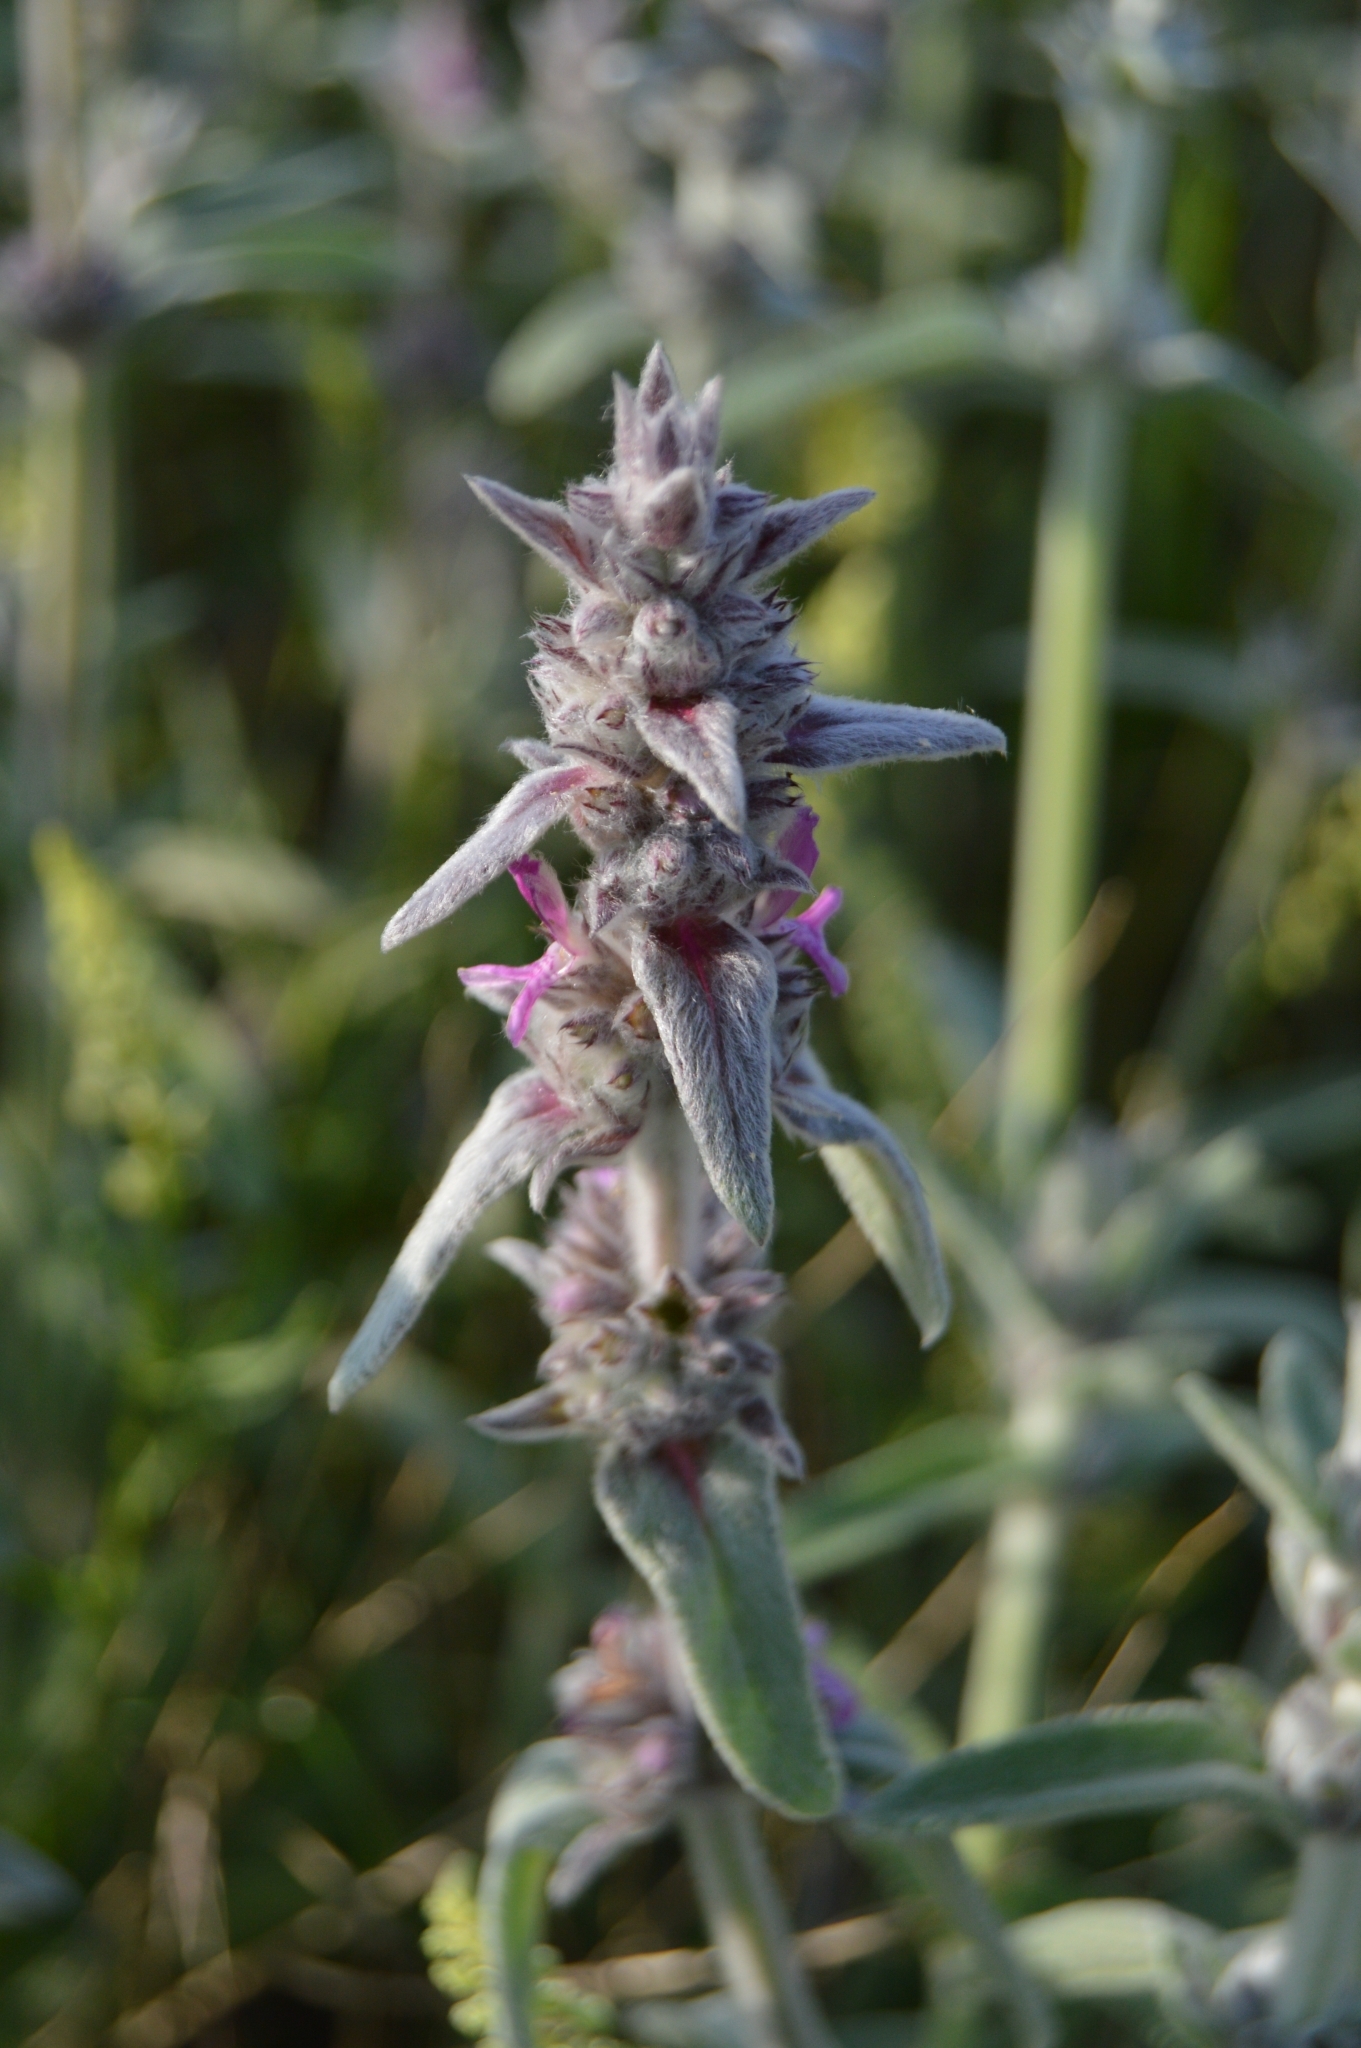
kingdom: Plantae
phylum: Tracheophyta
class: Magnoliopsida
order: Lamiales
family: Lamiaceae
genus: Stachys
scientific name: Stachys cretica
